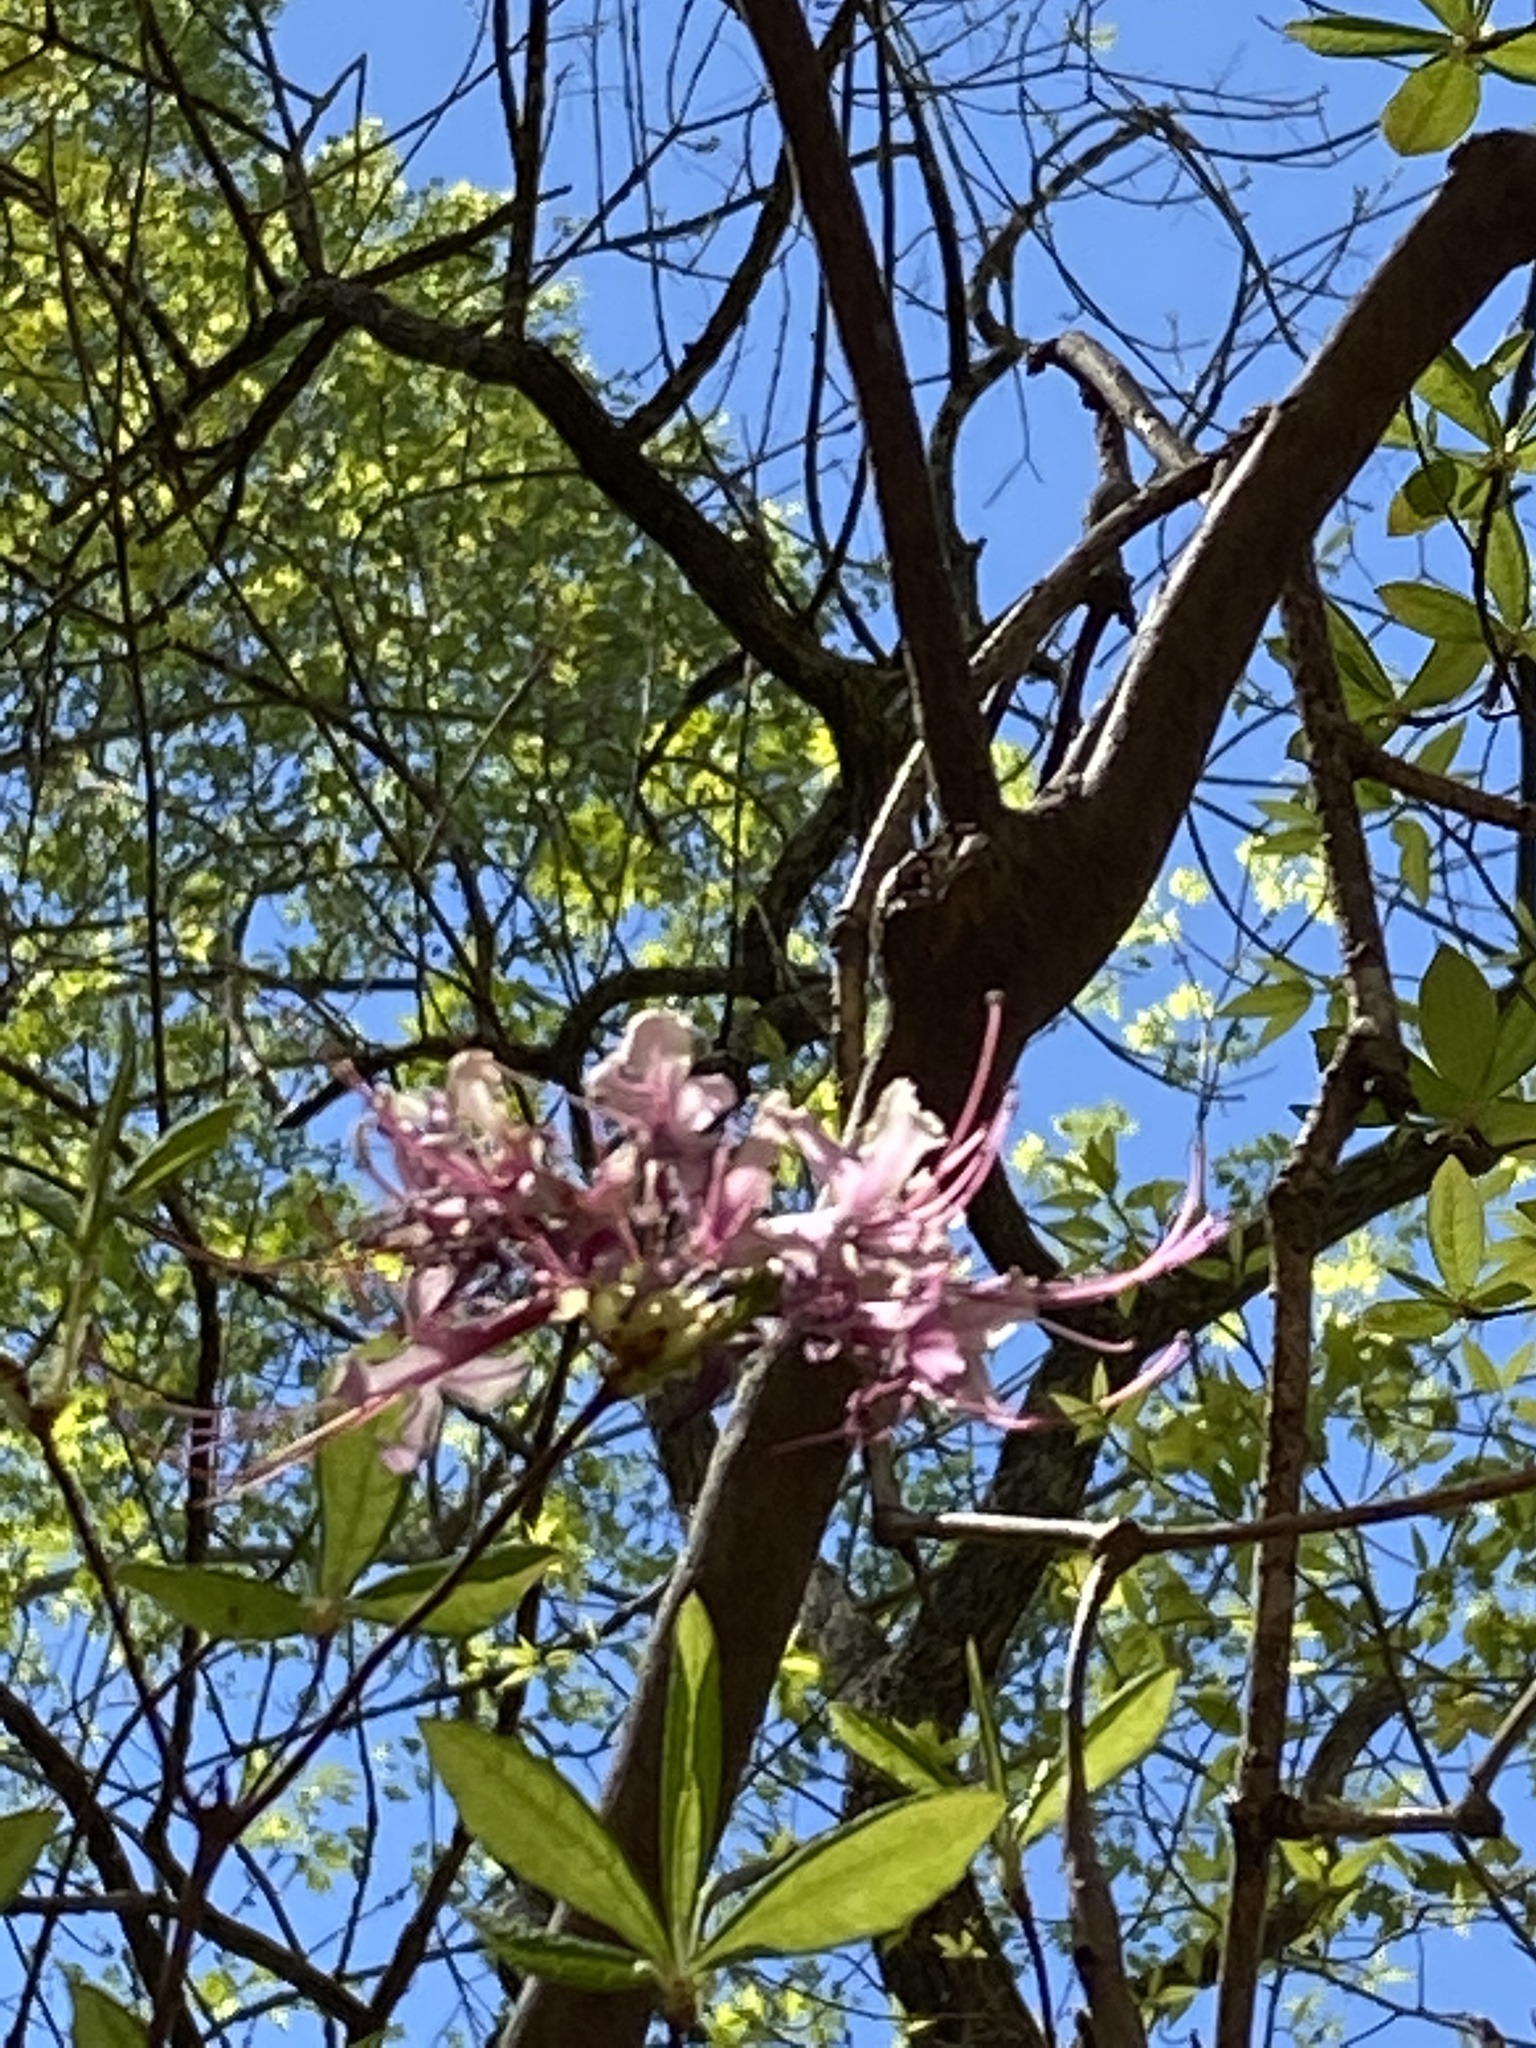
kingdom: Plantae
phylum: Tracheophyta
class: Magnoliopsida
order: Ericales
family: Ericaceae
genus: Rhododendron
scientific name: Rhododendron periclymenoides
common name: Election-pink
